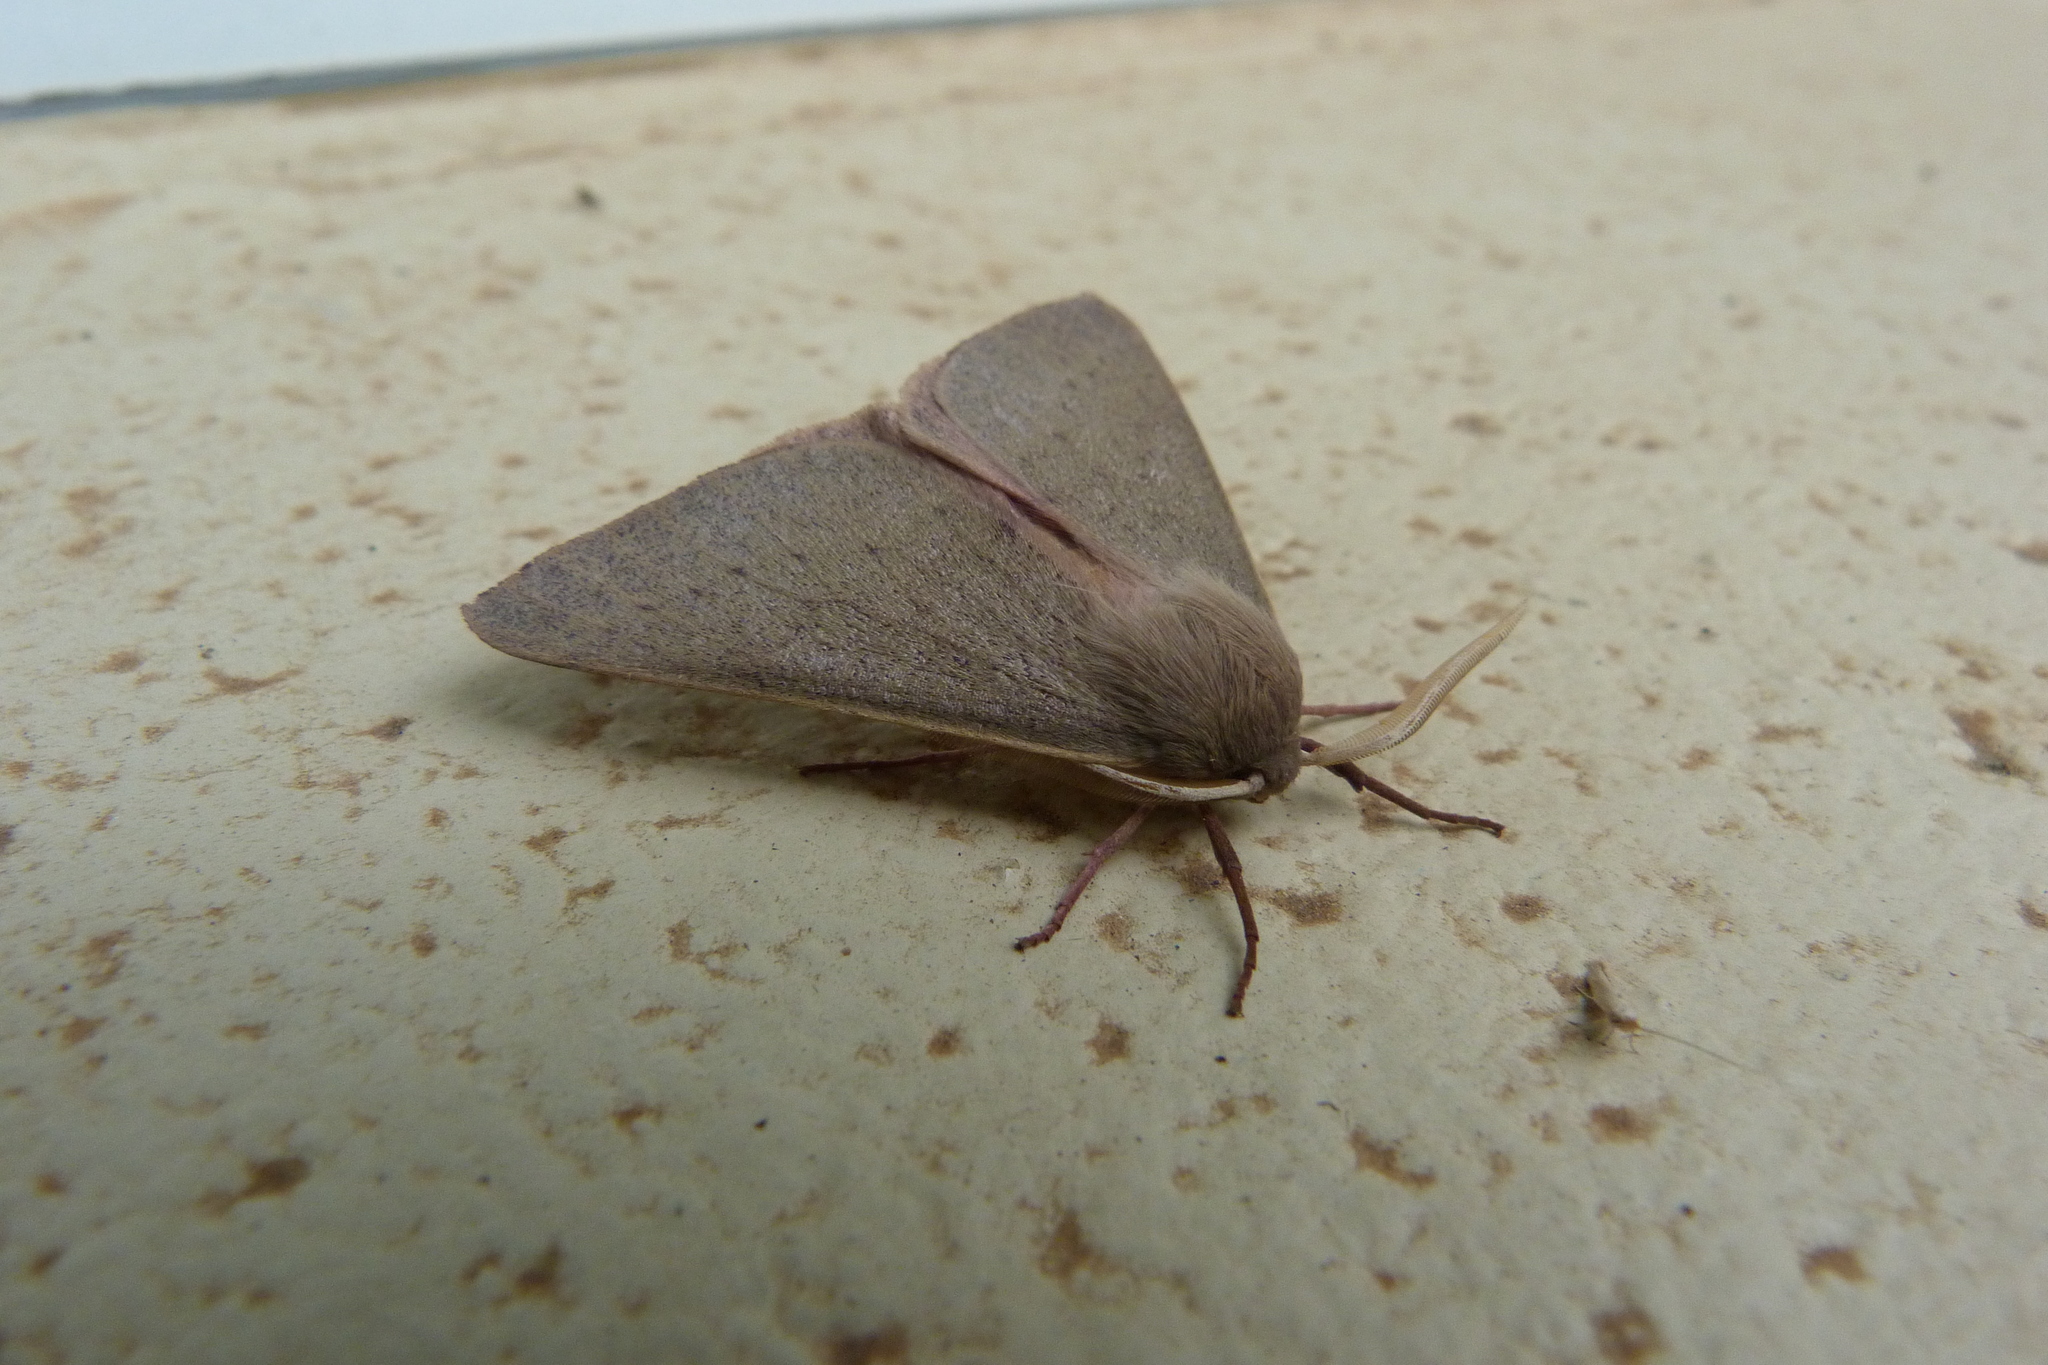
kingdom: Animalia
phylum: Arthropoda
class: Insecta
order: Lepidoptera
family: Geometridae
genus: Arhodia
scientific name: Arhodia lasiocamparia
